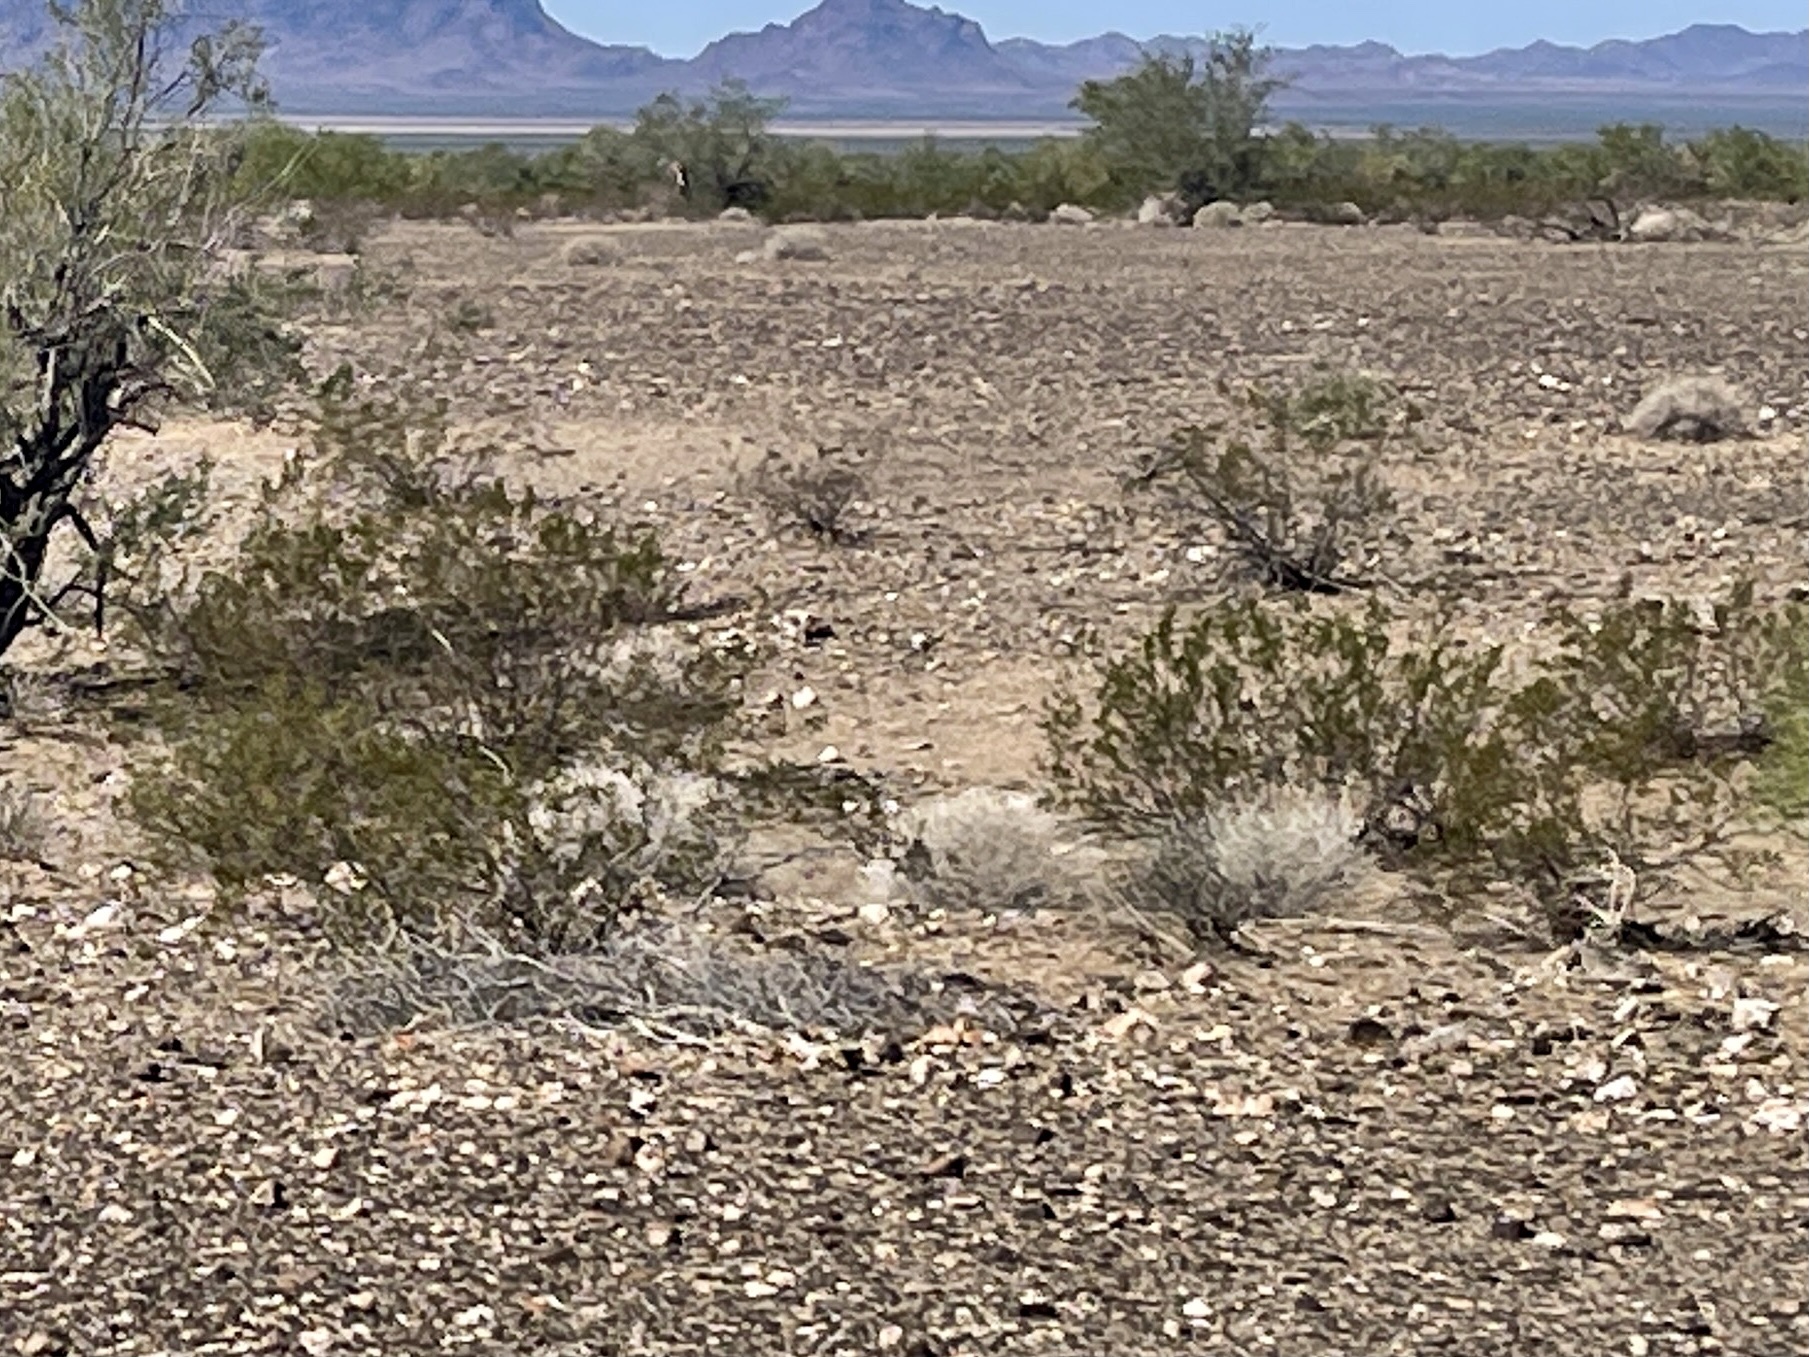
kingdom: Plantae
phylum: Tracheophyta
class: Magnoliopsida
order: Zygophyllales
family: Zygophyllaceae
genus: Larrea
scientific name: Larrea tridentata
